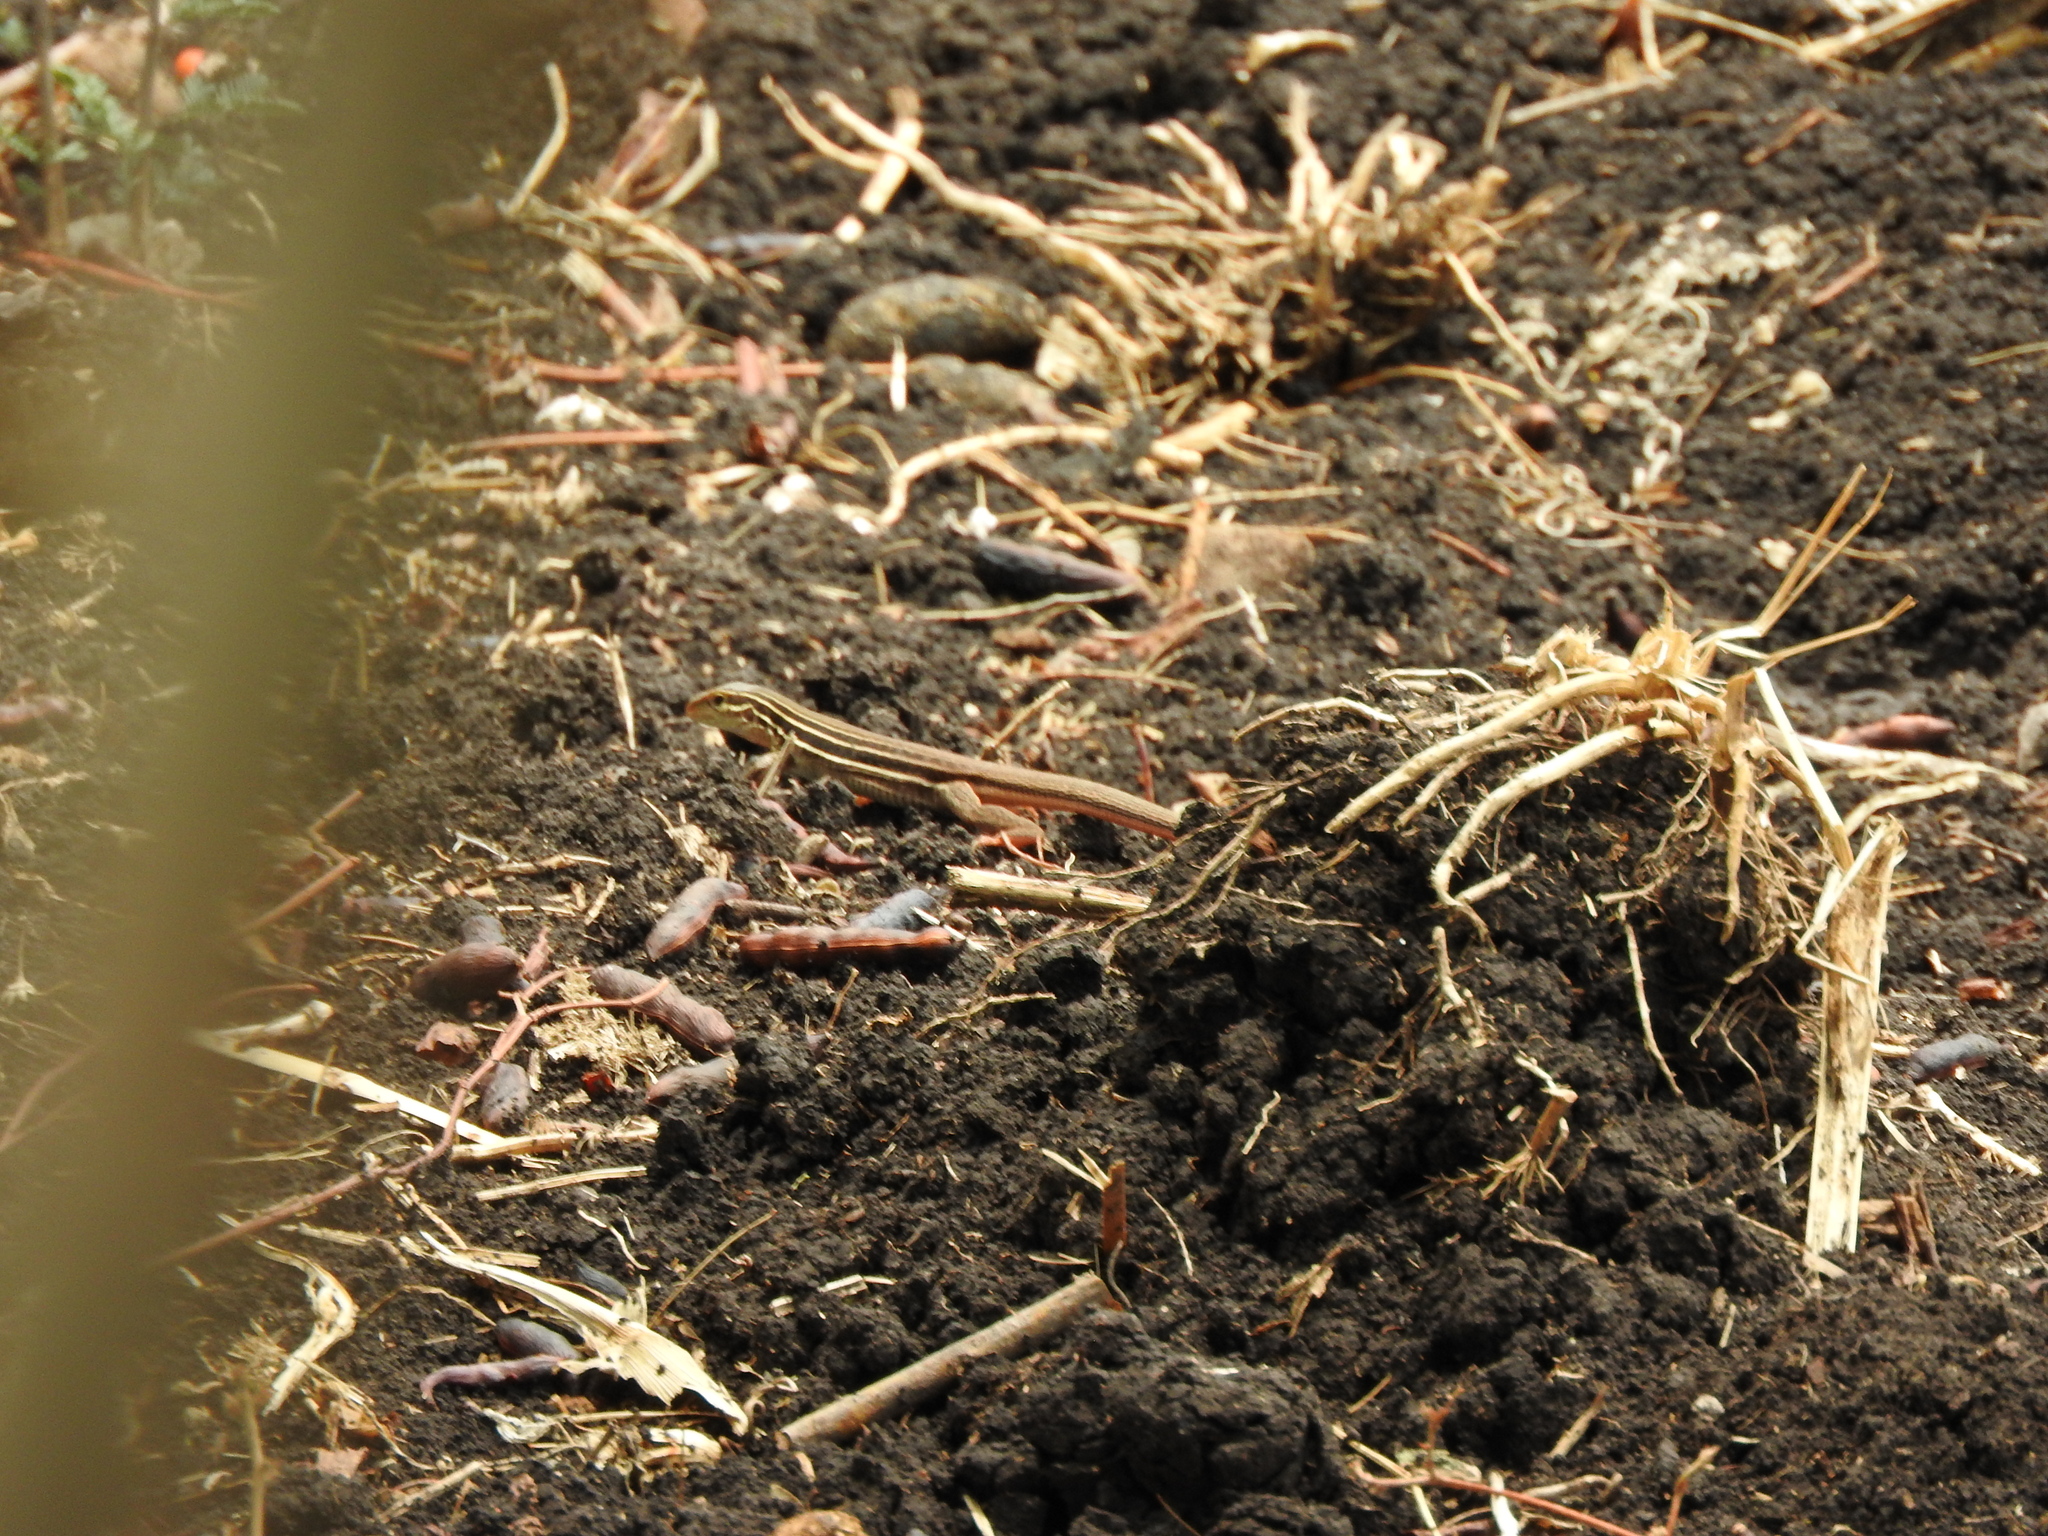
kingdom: Animalia
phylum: Chordata
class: Squamata
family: Teiidae
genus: Aspidoscelis
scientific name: Aspidoscelis gularis
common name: Eastern spotted whiptail
